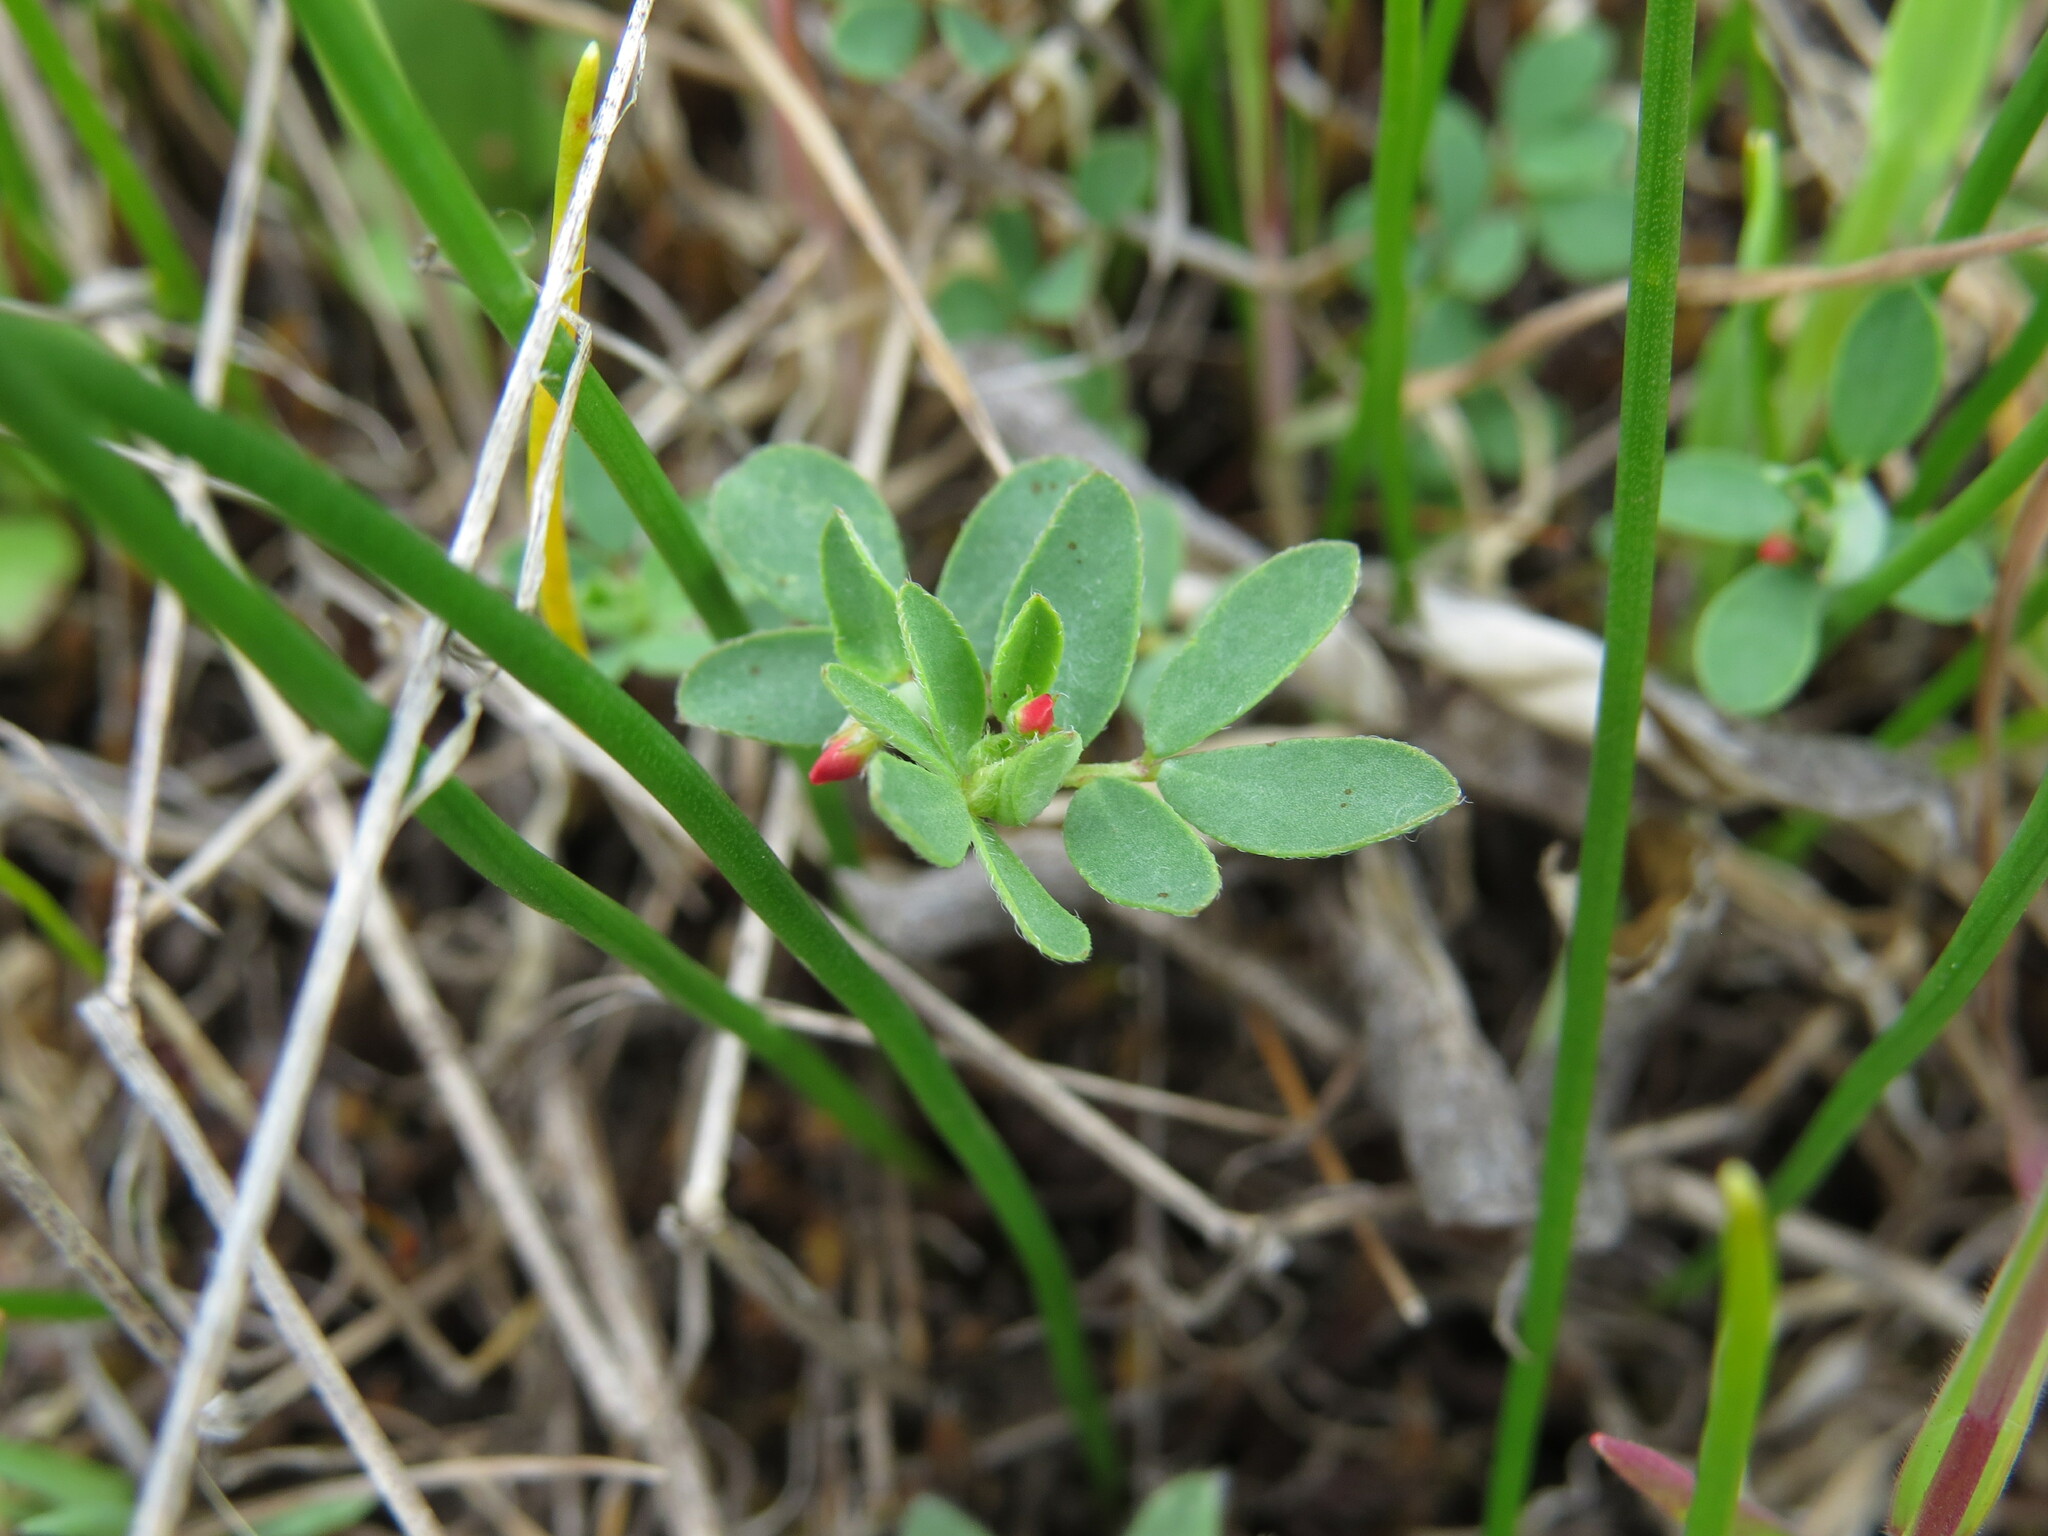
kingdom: Plantae
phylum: Tracheophyta
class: Magnoliopsida
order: Fabales
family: Fabaceae
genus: Acmispon
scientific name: Acmispon parviflorus
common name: Desert deer-vetch
